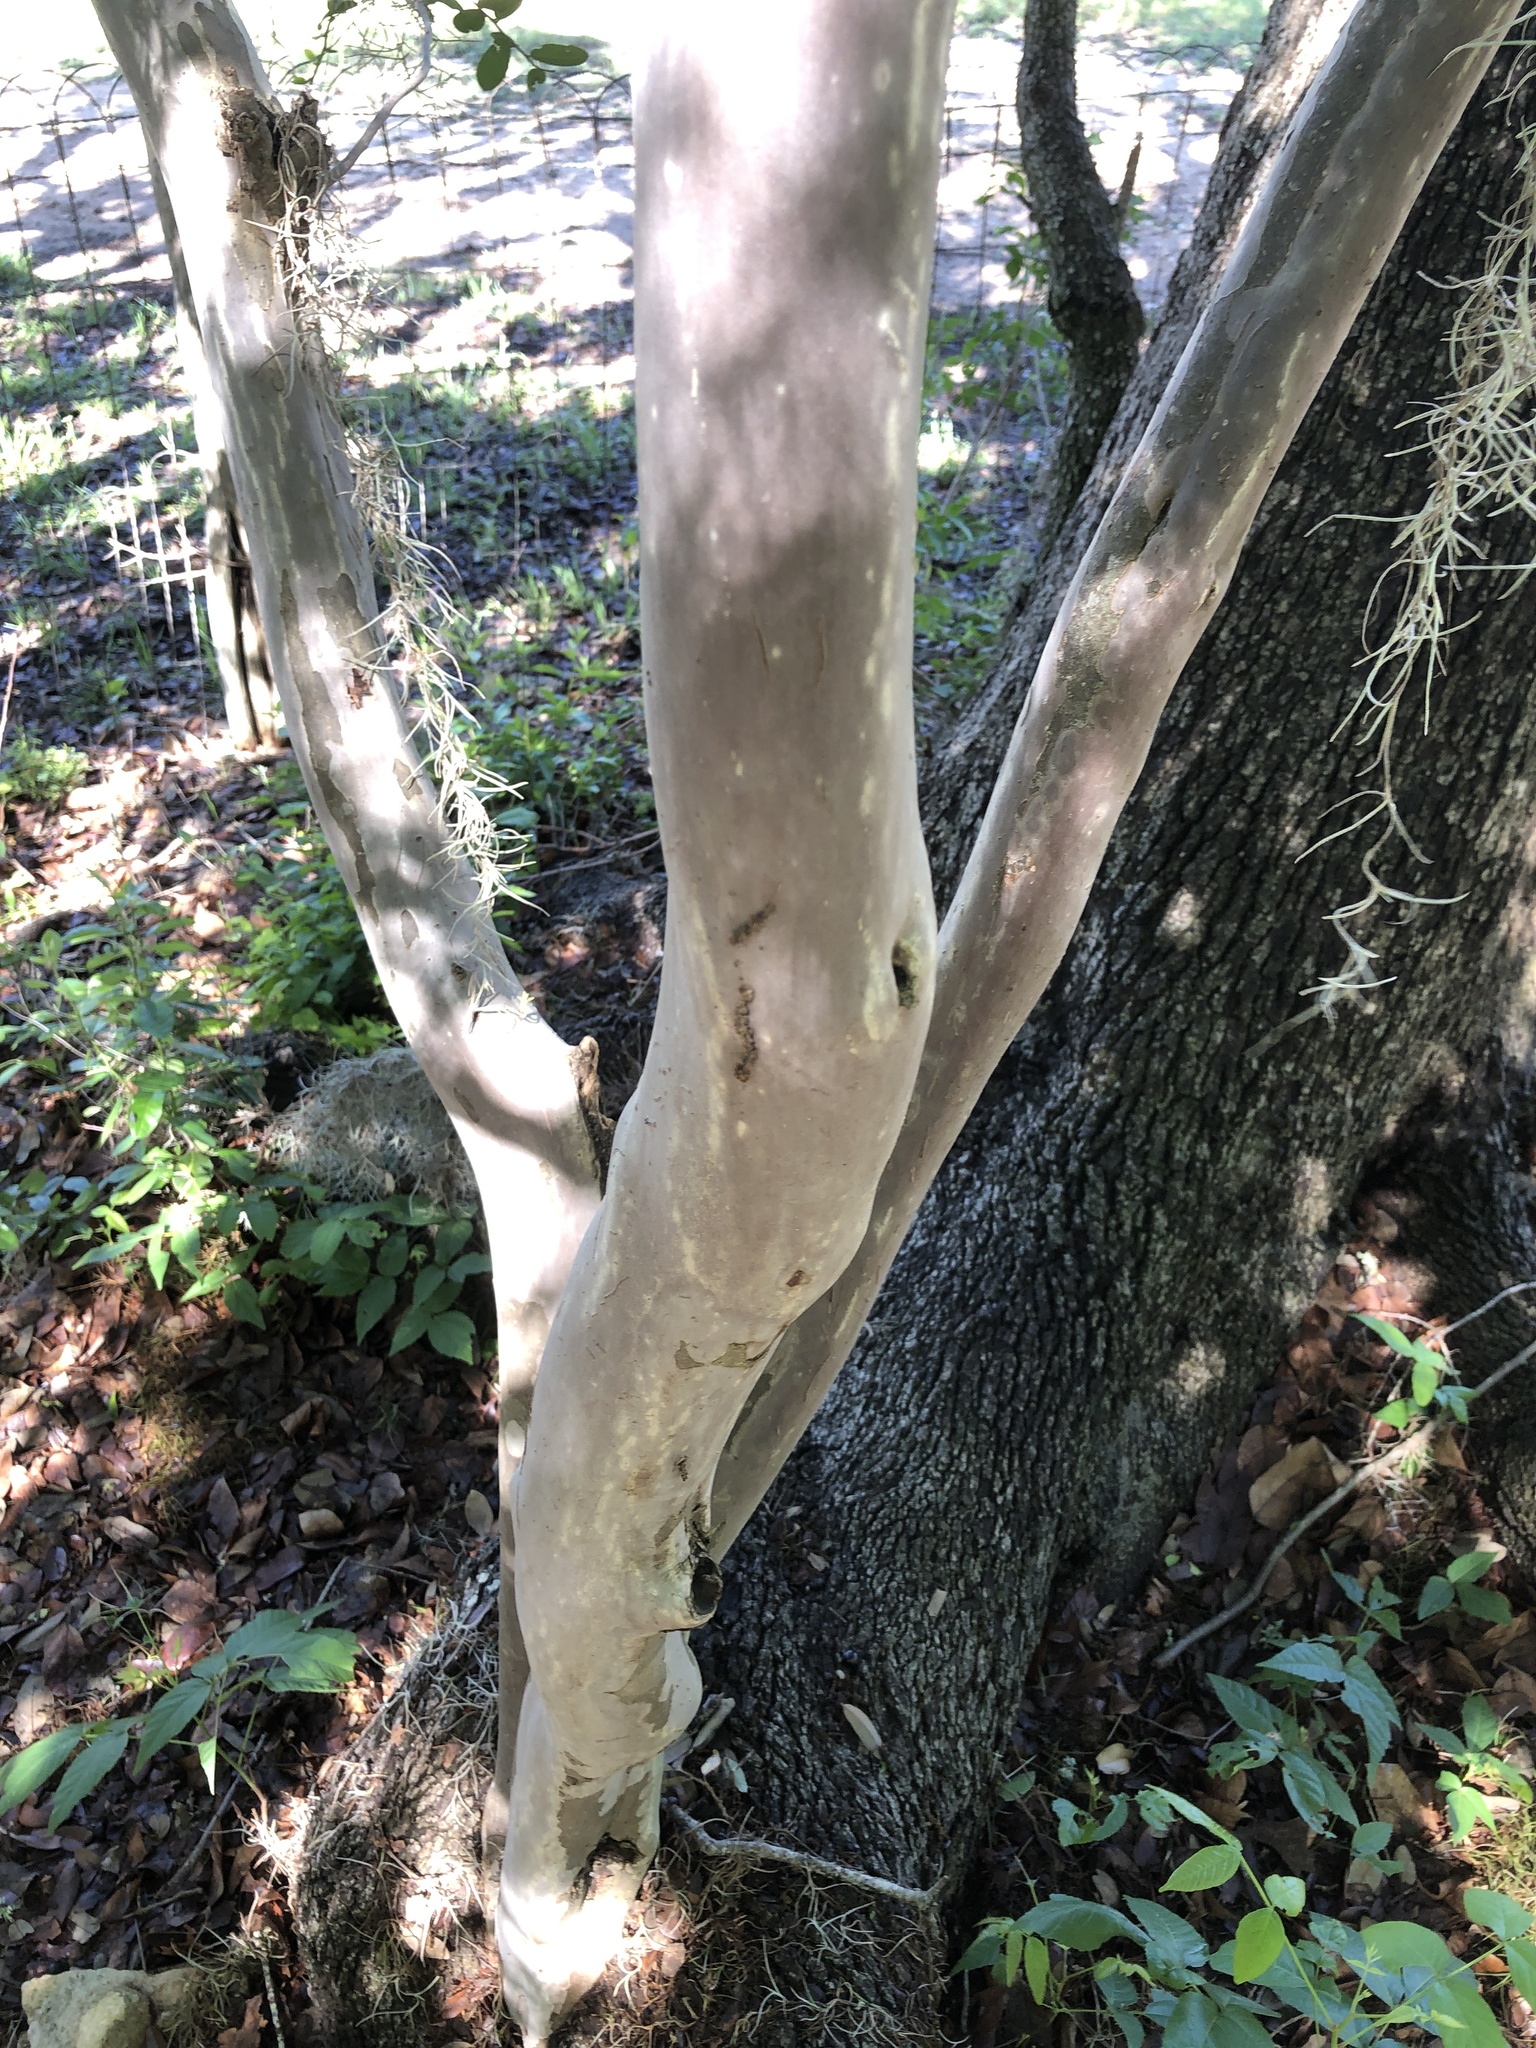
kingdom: Plantae
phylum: Tracheophyta
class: Magnoliopsida
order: Ericales
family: Ebenaceae
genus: Diospyros
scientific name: Diospyros texana
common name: Texas persimmon
